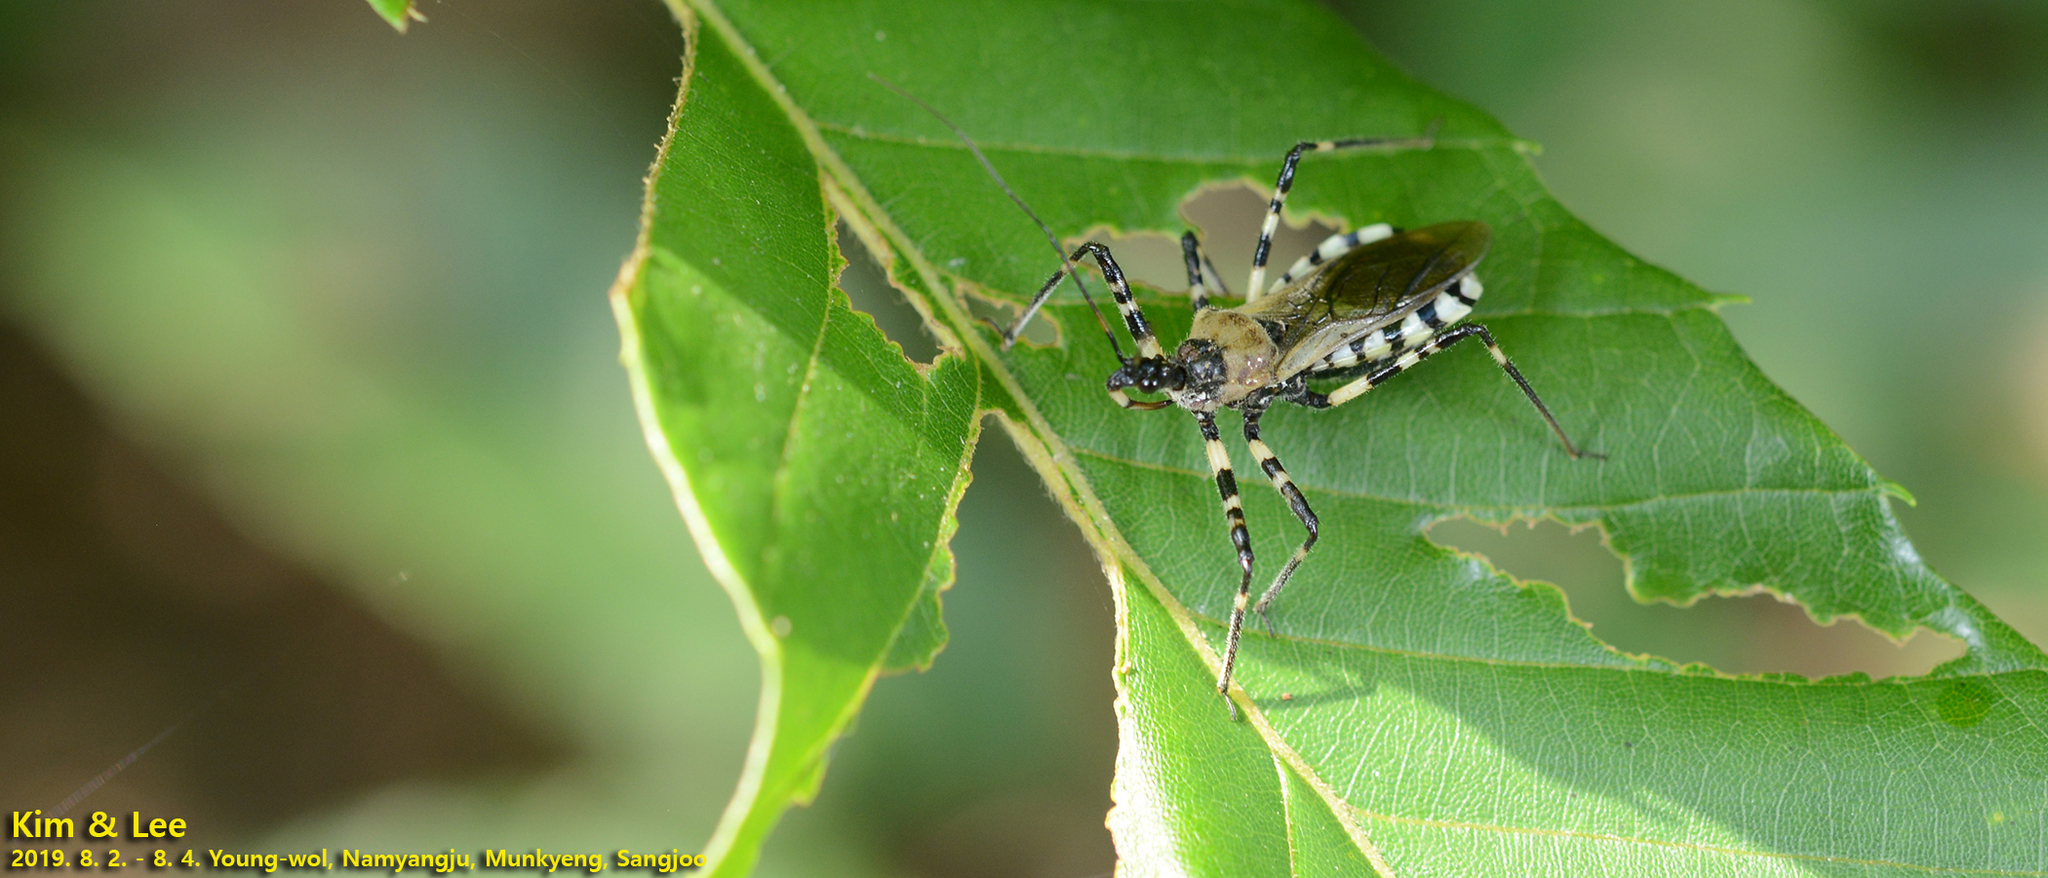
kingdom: Animalia
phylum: Arthropoda
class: Insecta
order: Hemiptera
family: Reduviidae
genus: Sphedanolestes
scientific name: Sphedanolestes impressicollis
